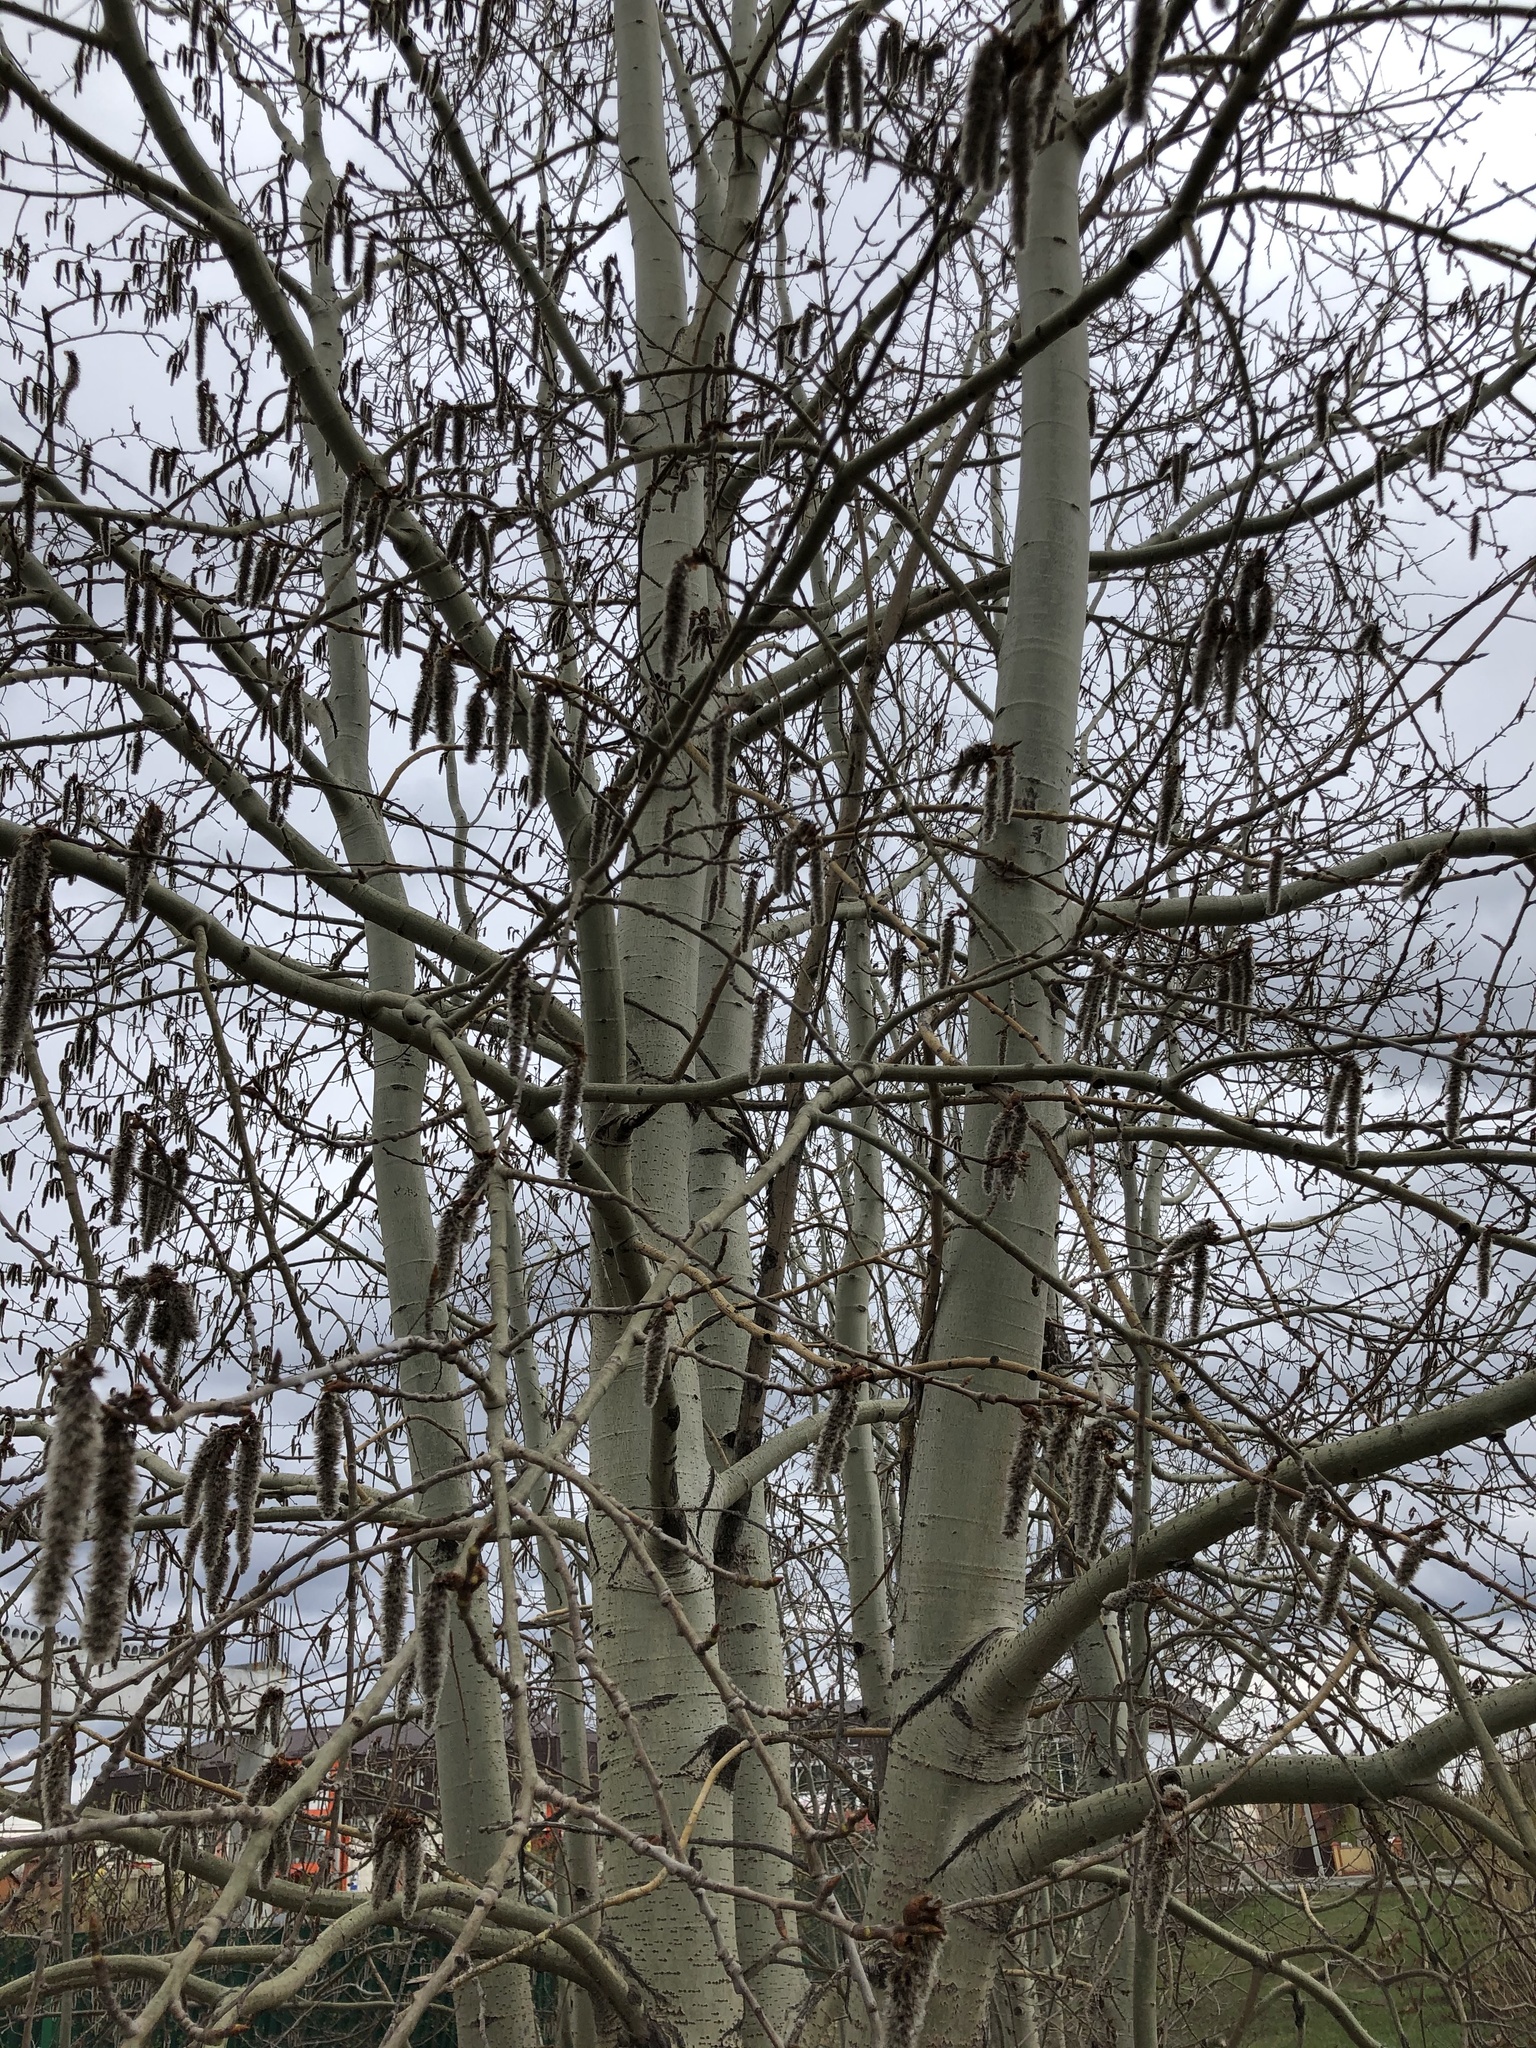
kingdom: Plantae
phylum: Tracheophyta
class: Magnoliopsida
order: Malpighiales
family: Salicaceae
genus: Populus
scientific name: Populus tremula
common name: European aspen
